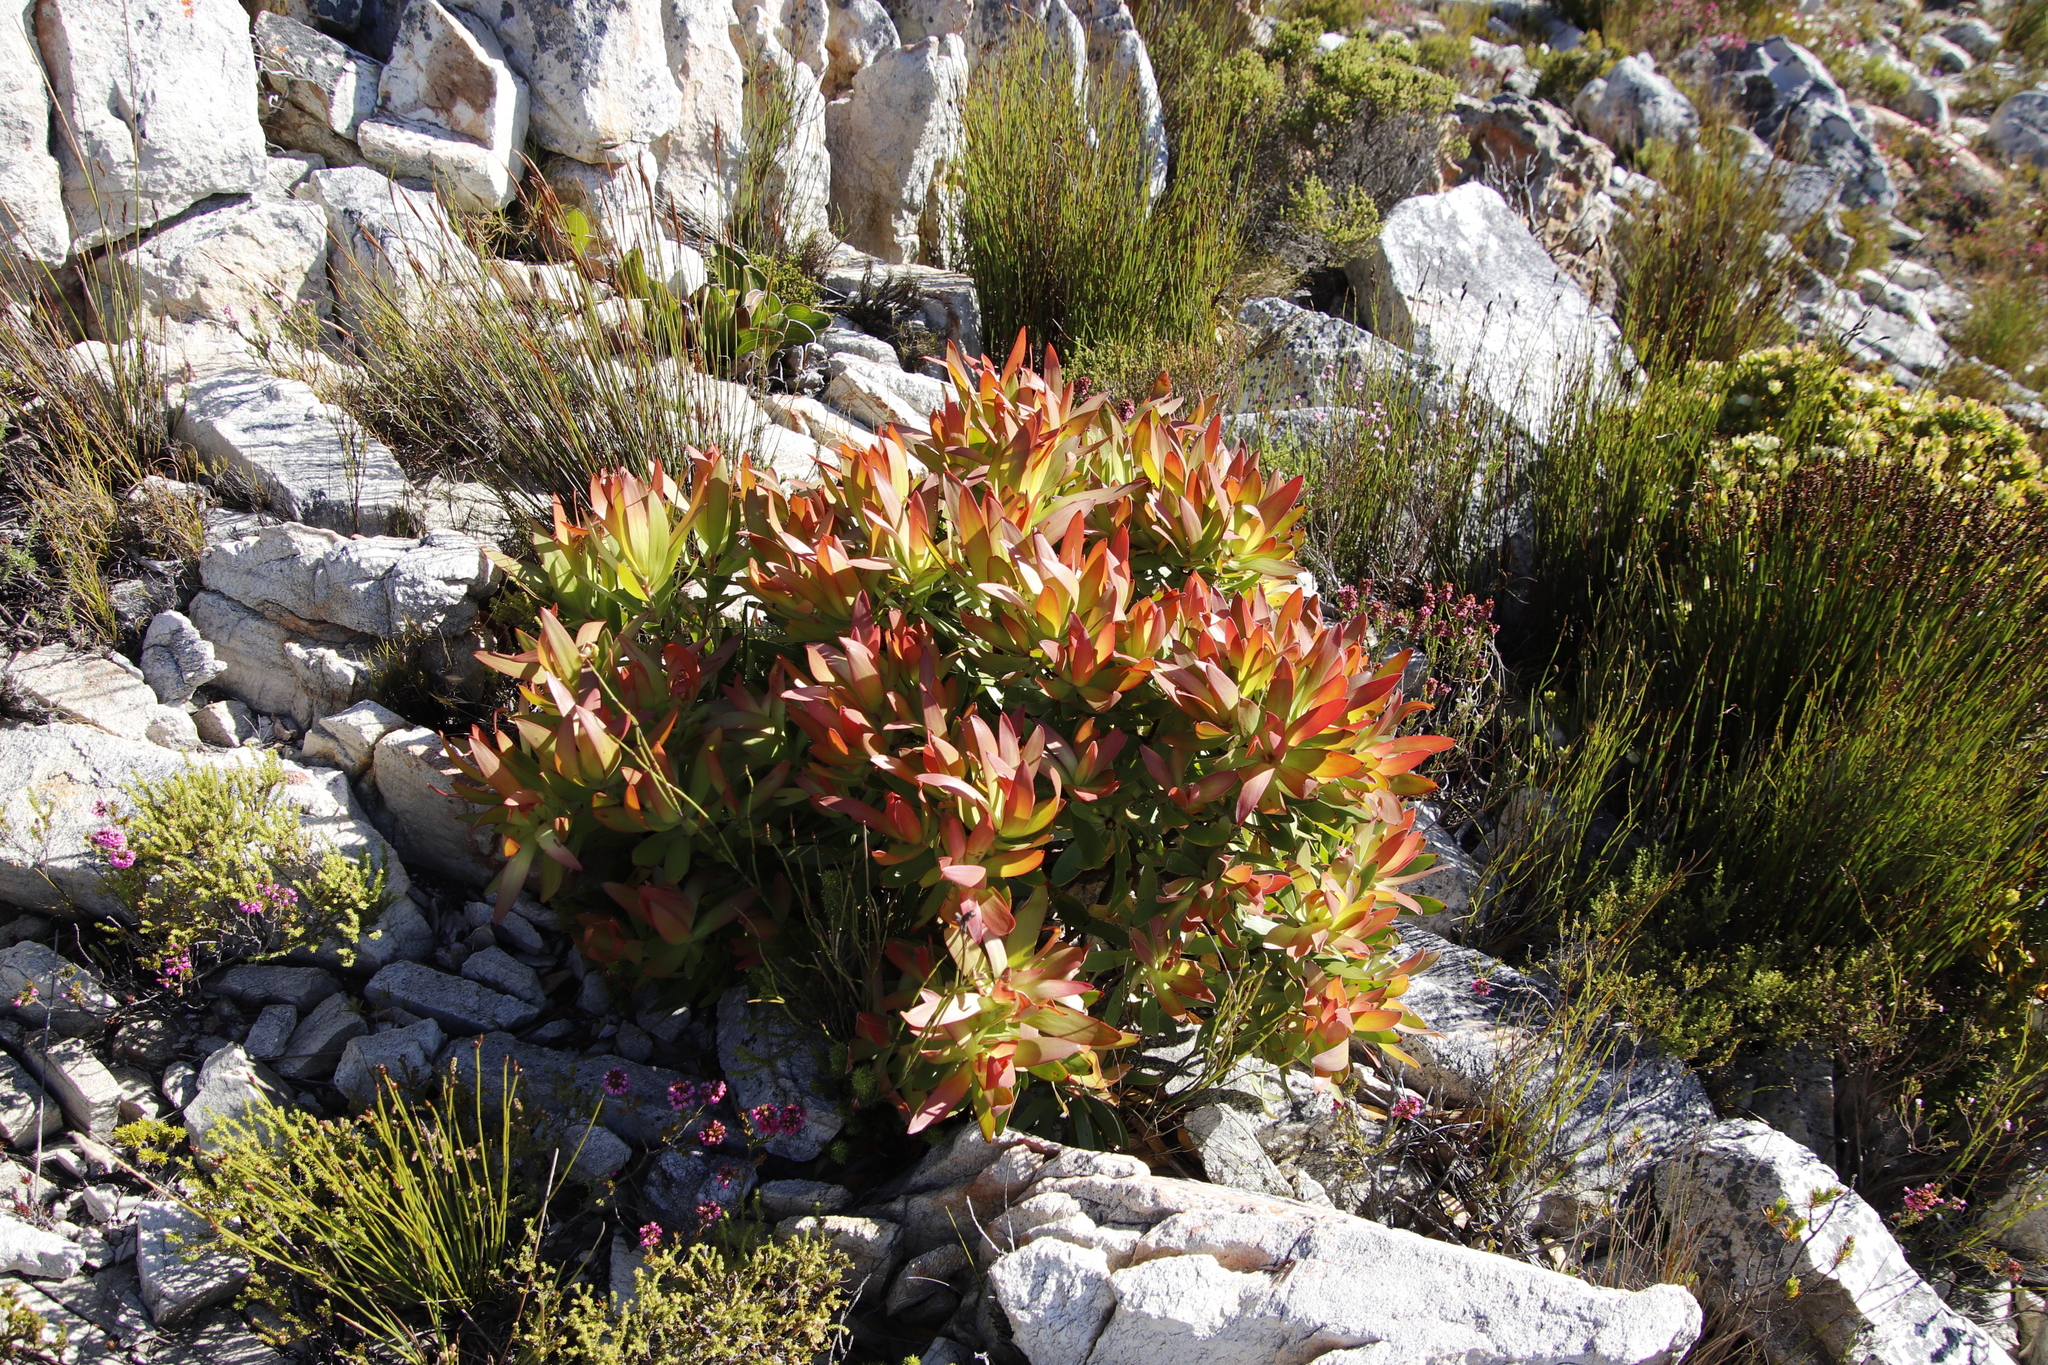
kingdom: Plantae
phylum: Tracheophyta
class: Magnoliopsida
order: Proteales
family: Proteaceae
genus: Leucadendron
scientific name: Leucadendron laureolum
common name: Golden sunshinebush
